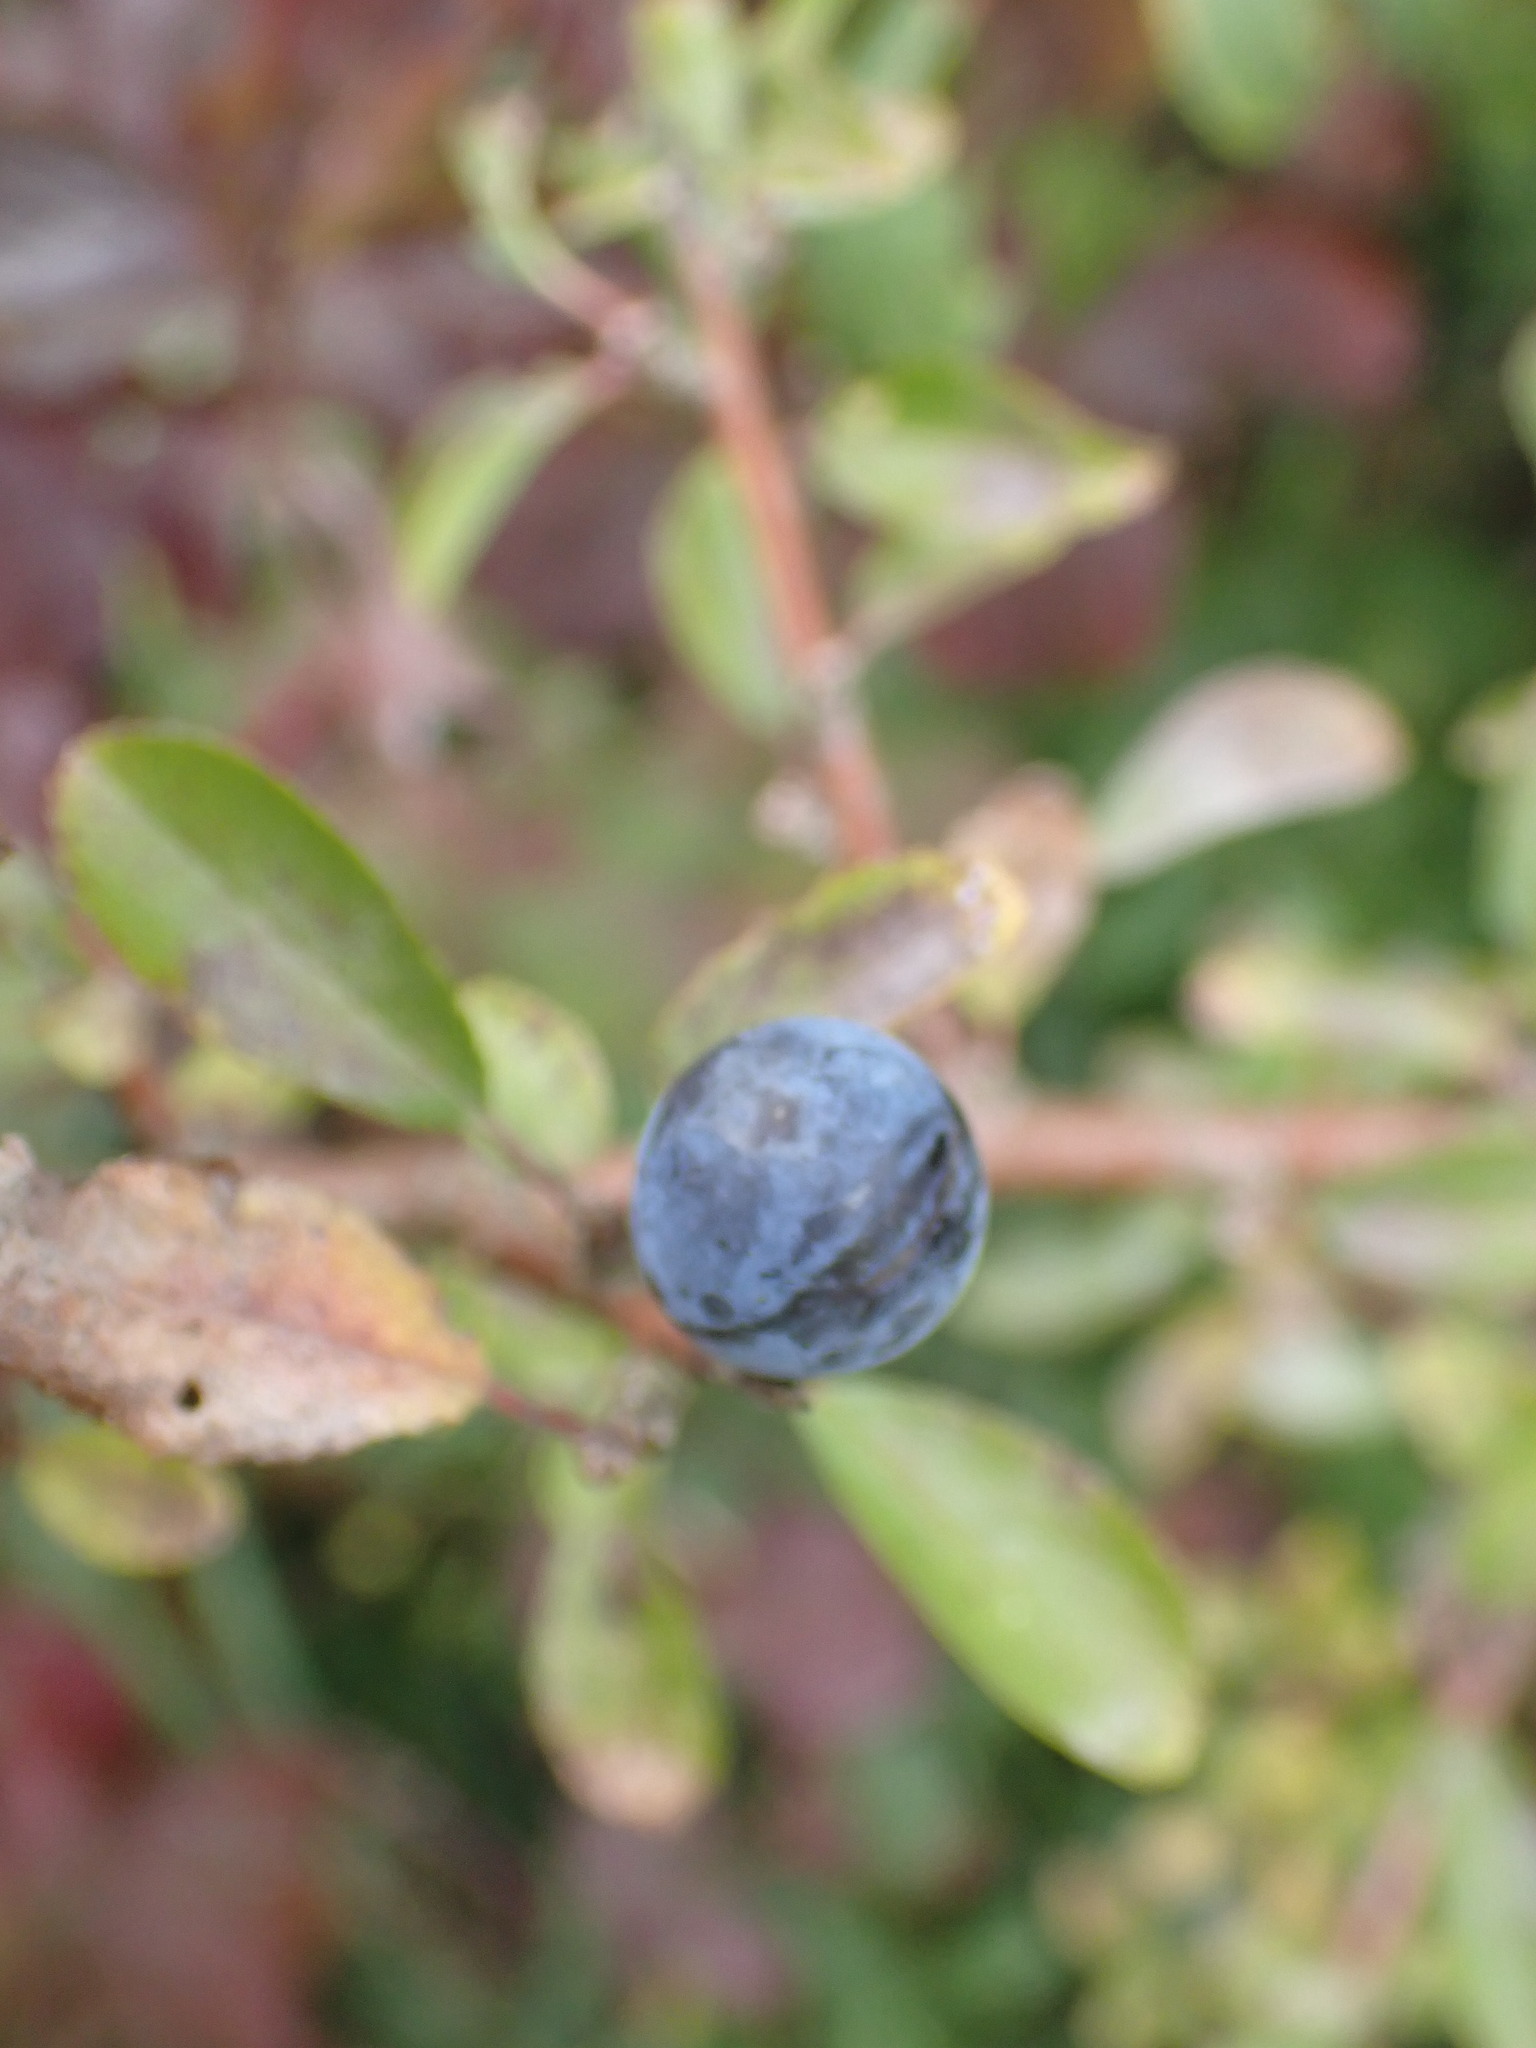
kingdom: Plantae
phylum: Tracheophyta
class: Magnoliopsida
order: Rosales
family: Rosaceae
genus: Prunus
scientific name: Prunus spinosa
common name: Blackthorn
